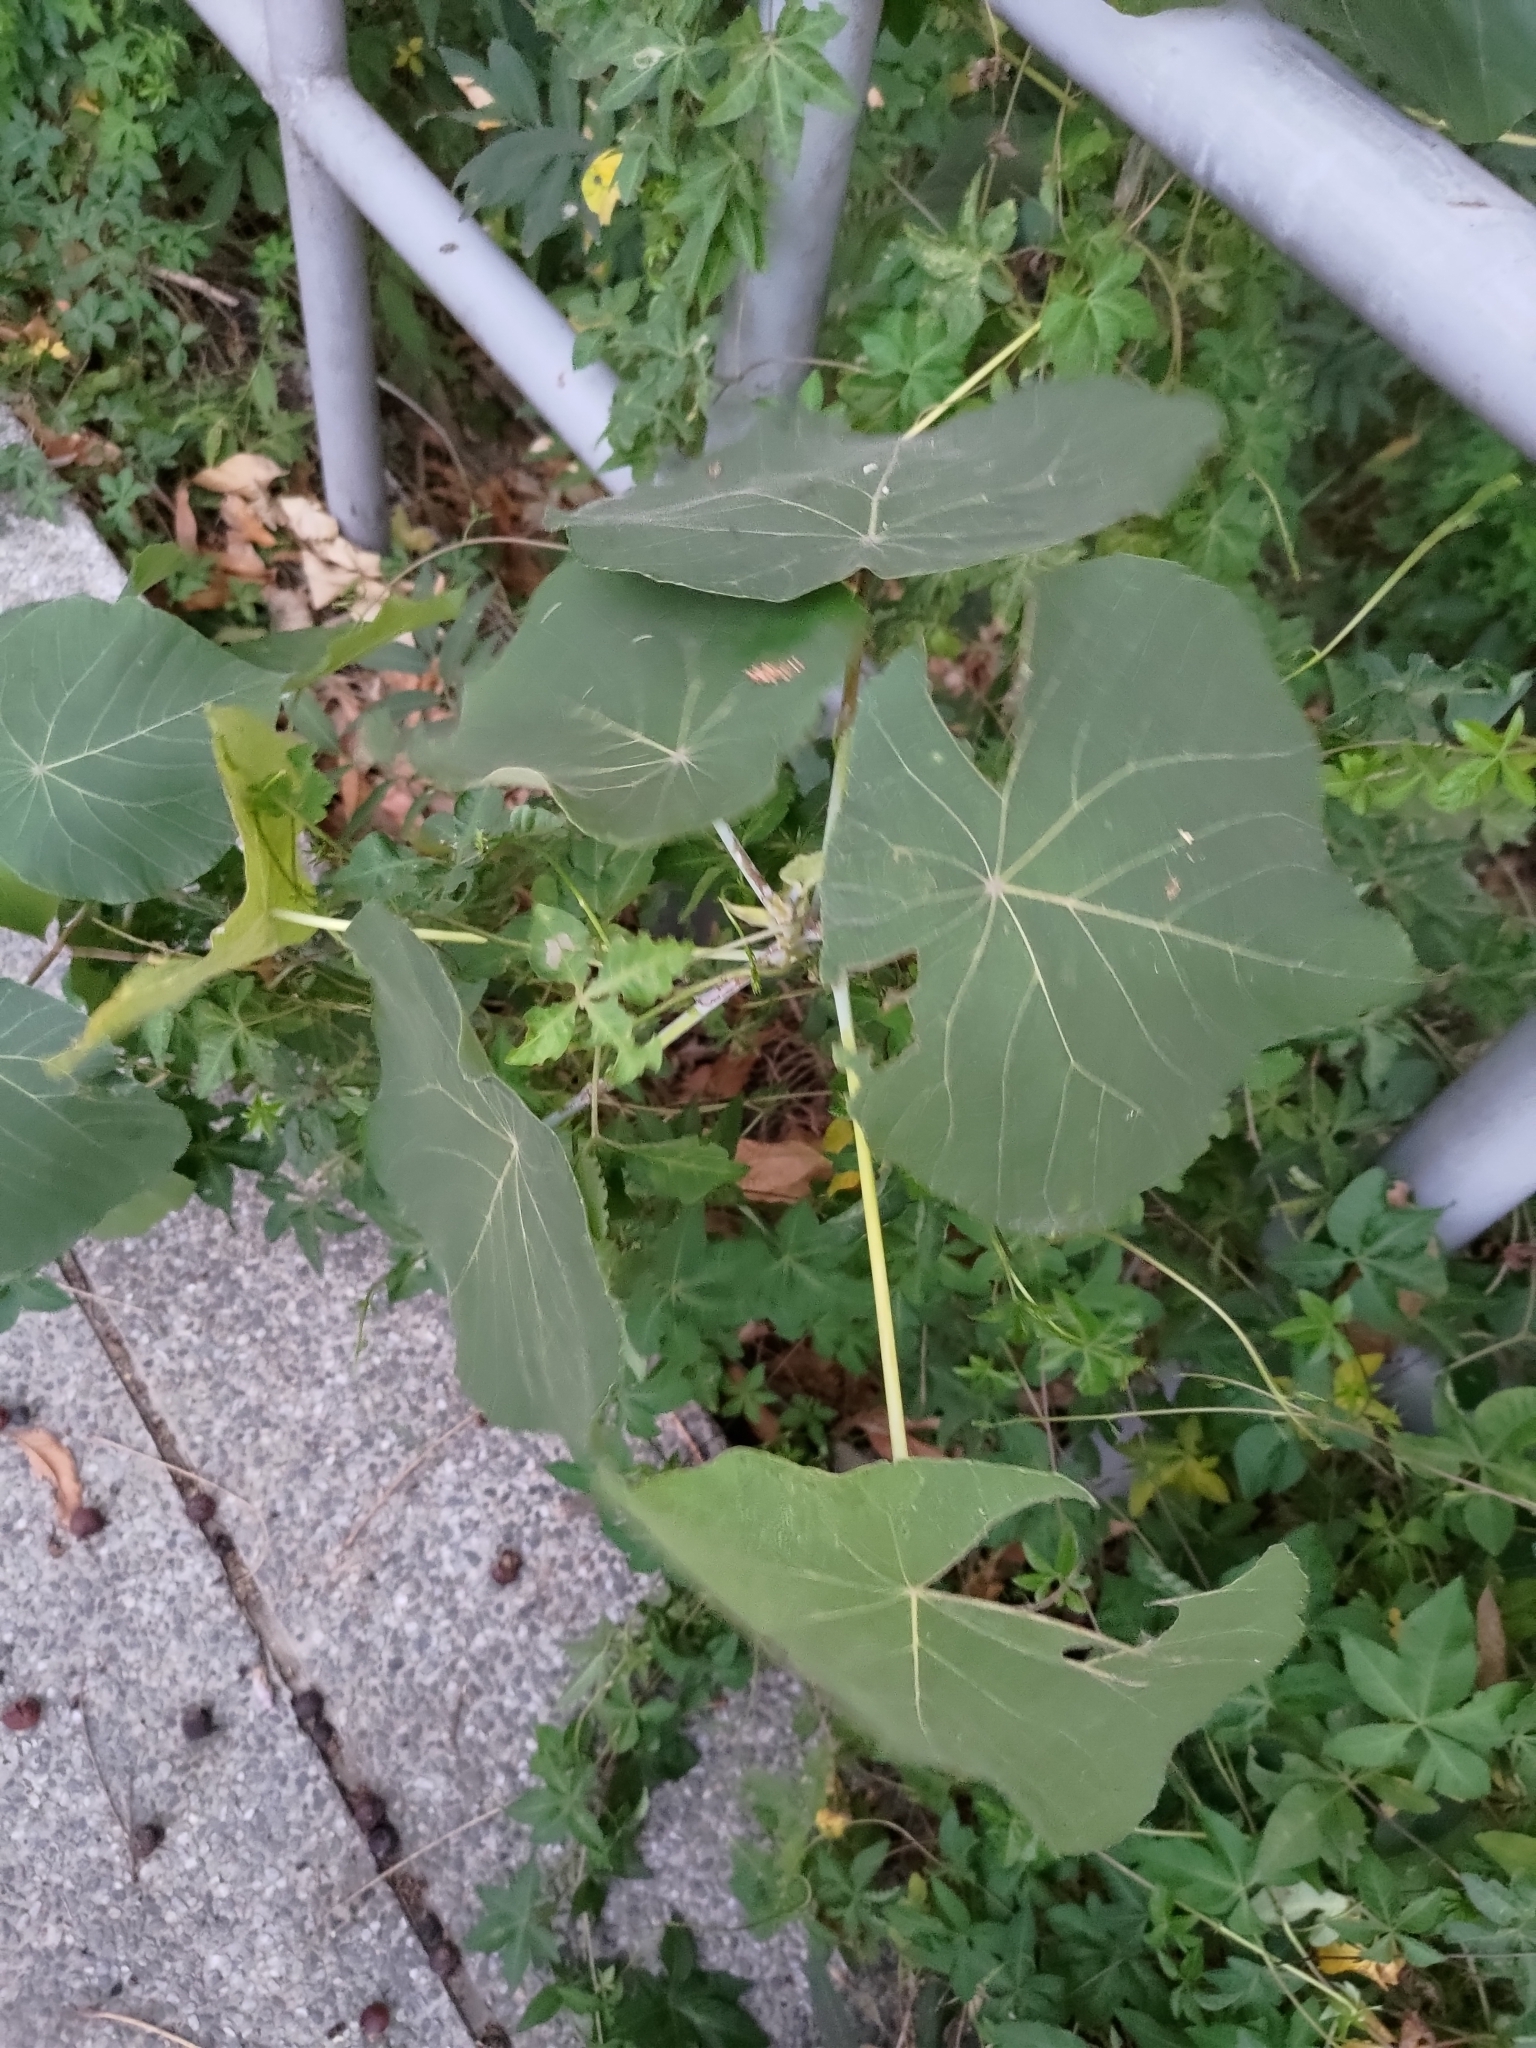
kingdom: Plantae
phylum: Tracheophyta
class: Magnoliopsida
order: Malpighiales
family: Euphorbiaceae
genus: Macaranga
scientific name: Macaranga tanarius
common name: Parasol leaf tree
